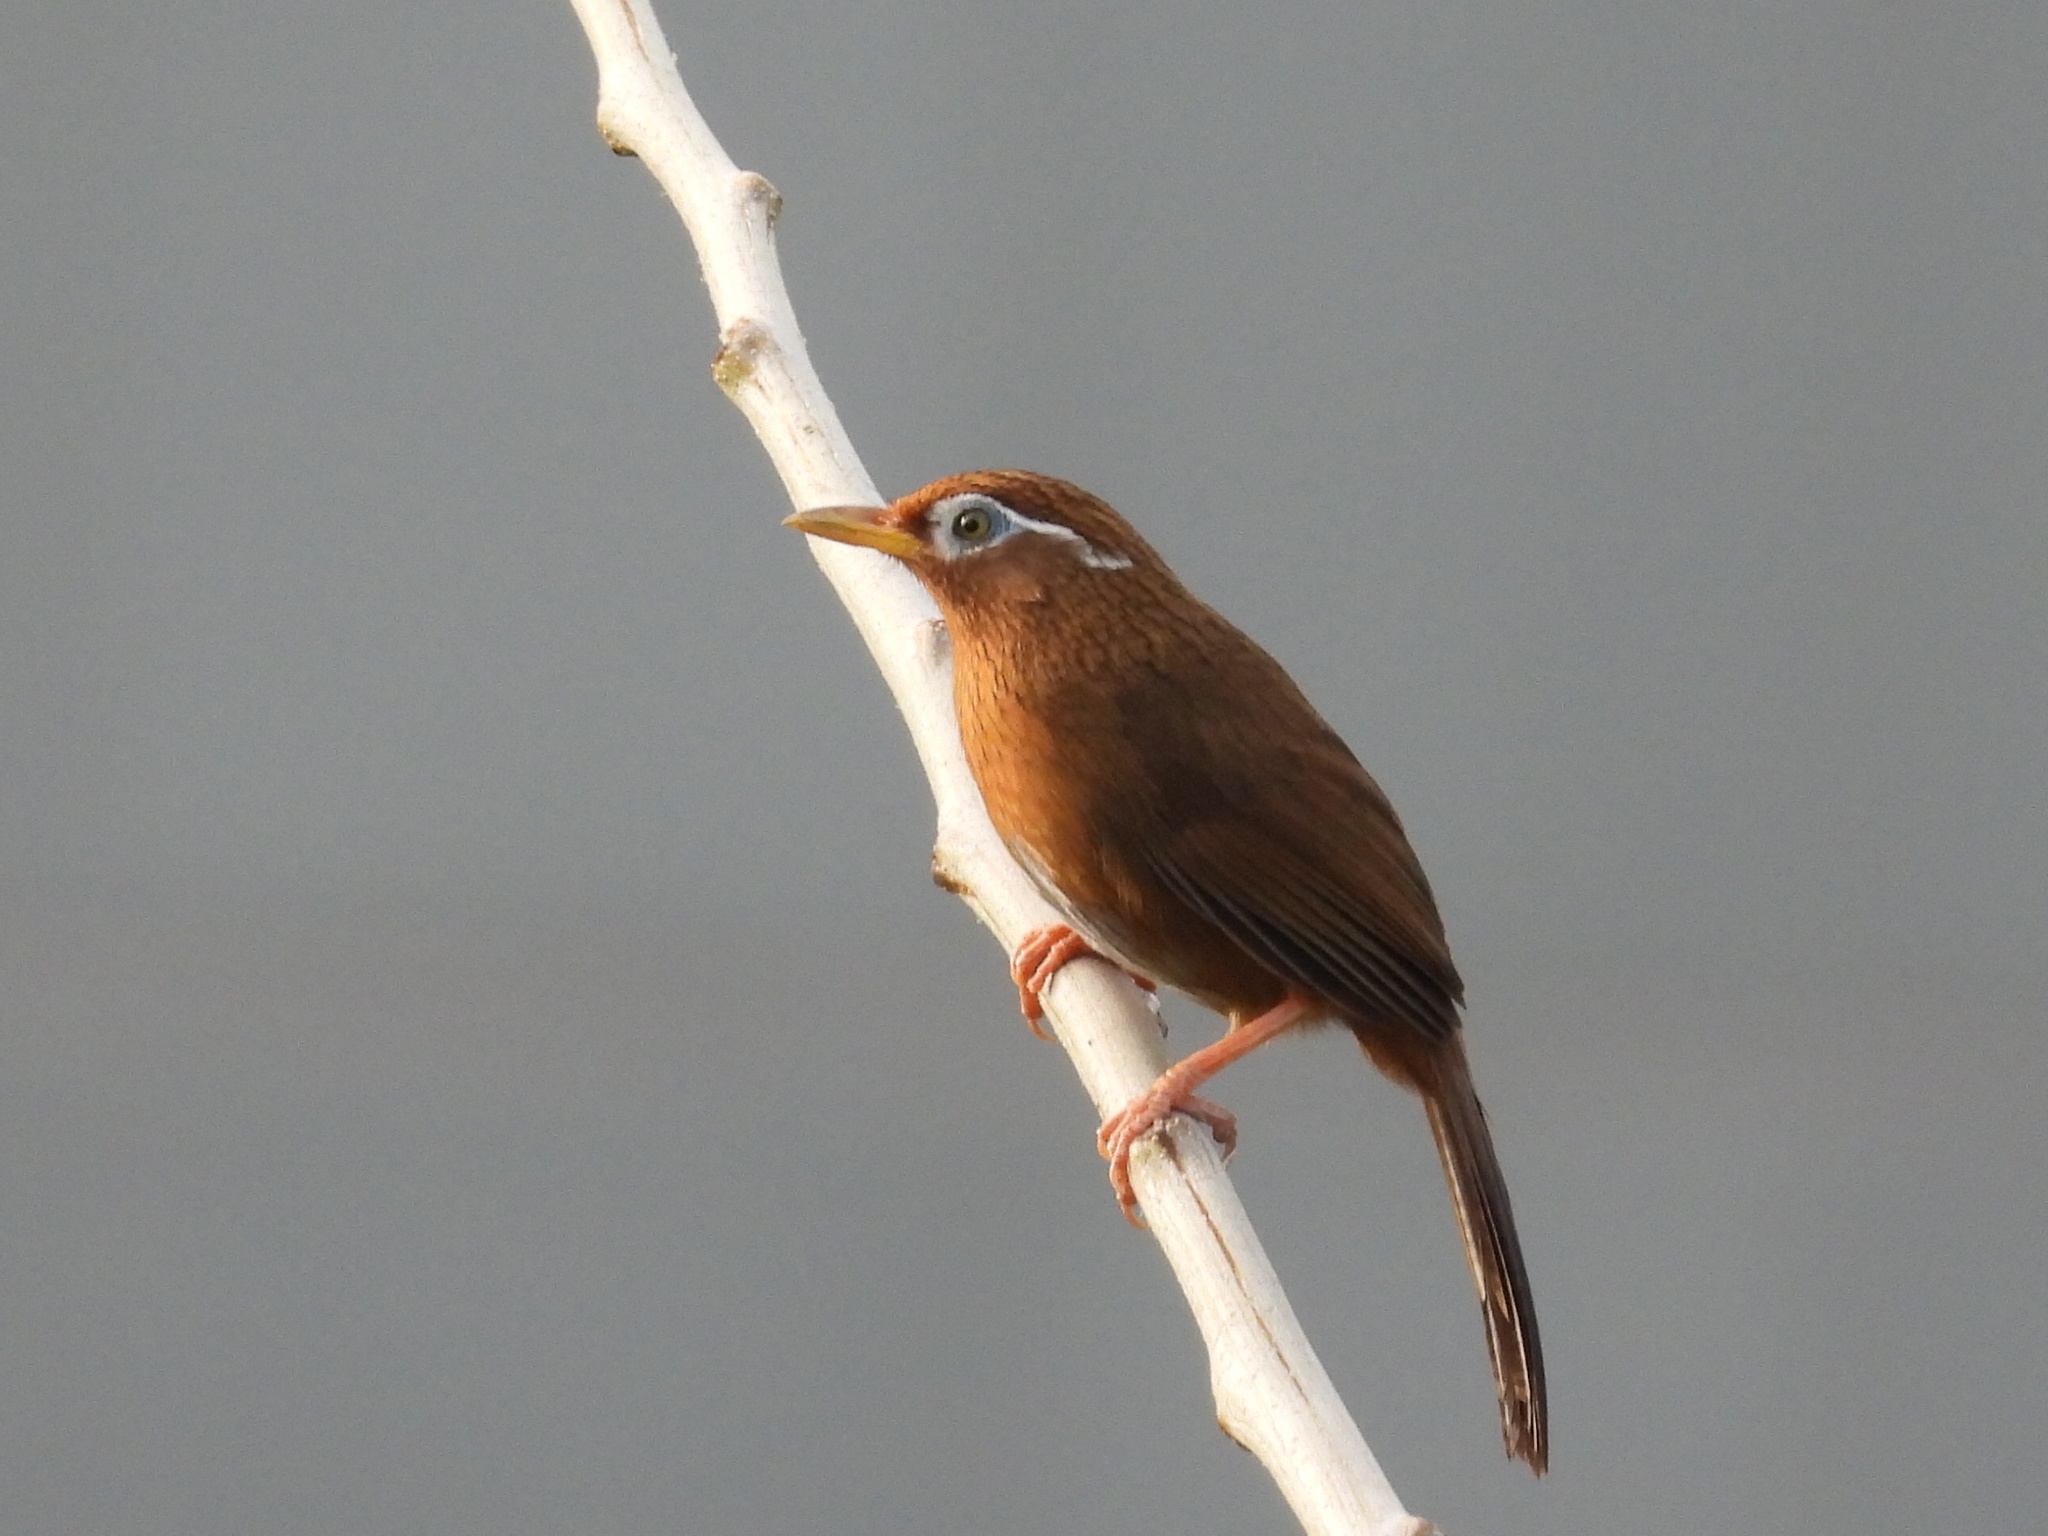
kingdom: Animalia
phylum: Chordata
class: Aves
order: Passeriformes
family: Leiothrichidae
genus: Garrulax
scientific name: Garrulax canorus
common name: Chinese hwamei
